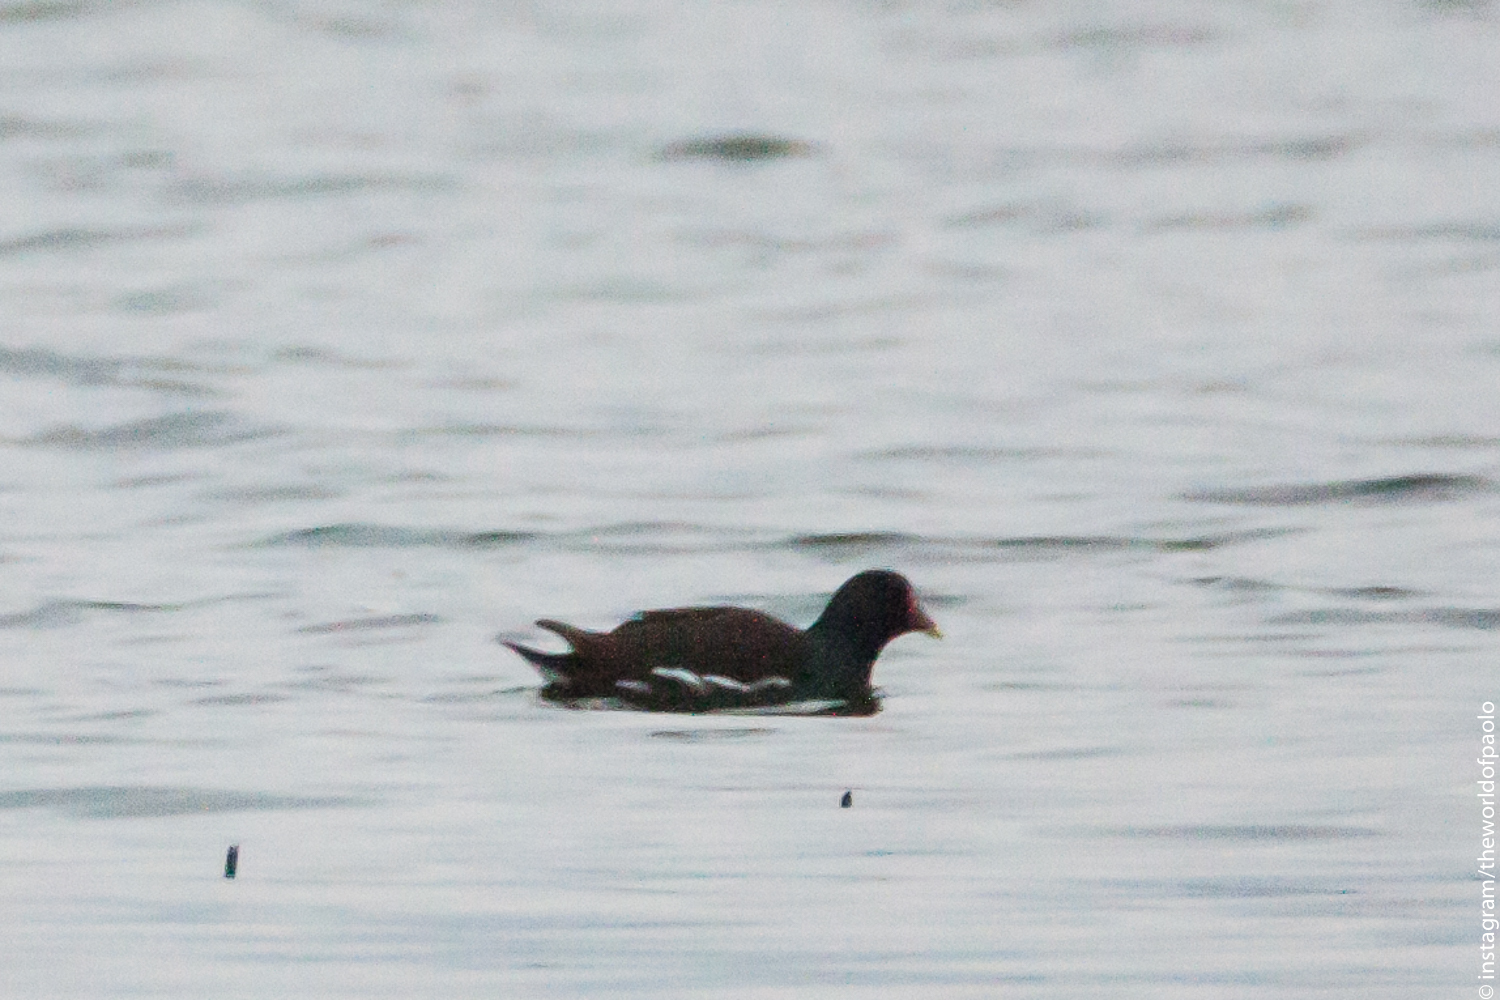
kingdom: Animalia
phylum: Chordata
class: Aves
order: Gruiformes
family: Rallidae
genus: Gallinula
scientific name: Gallinula chloropus
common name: Common moorhen
